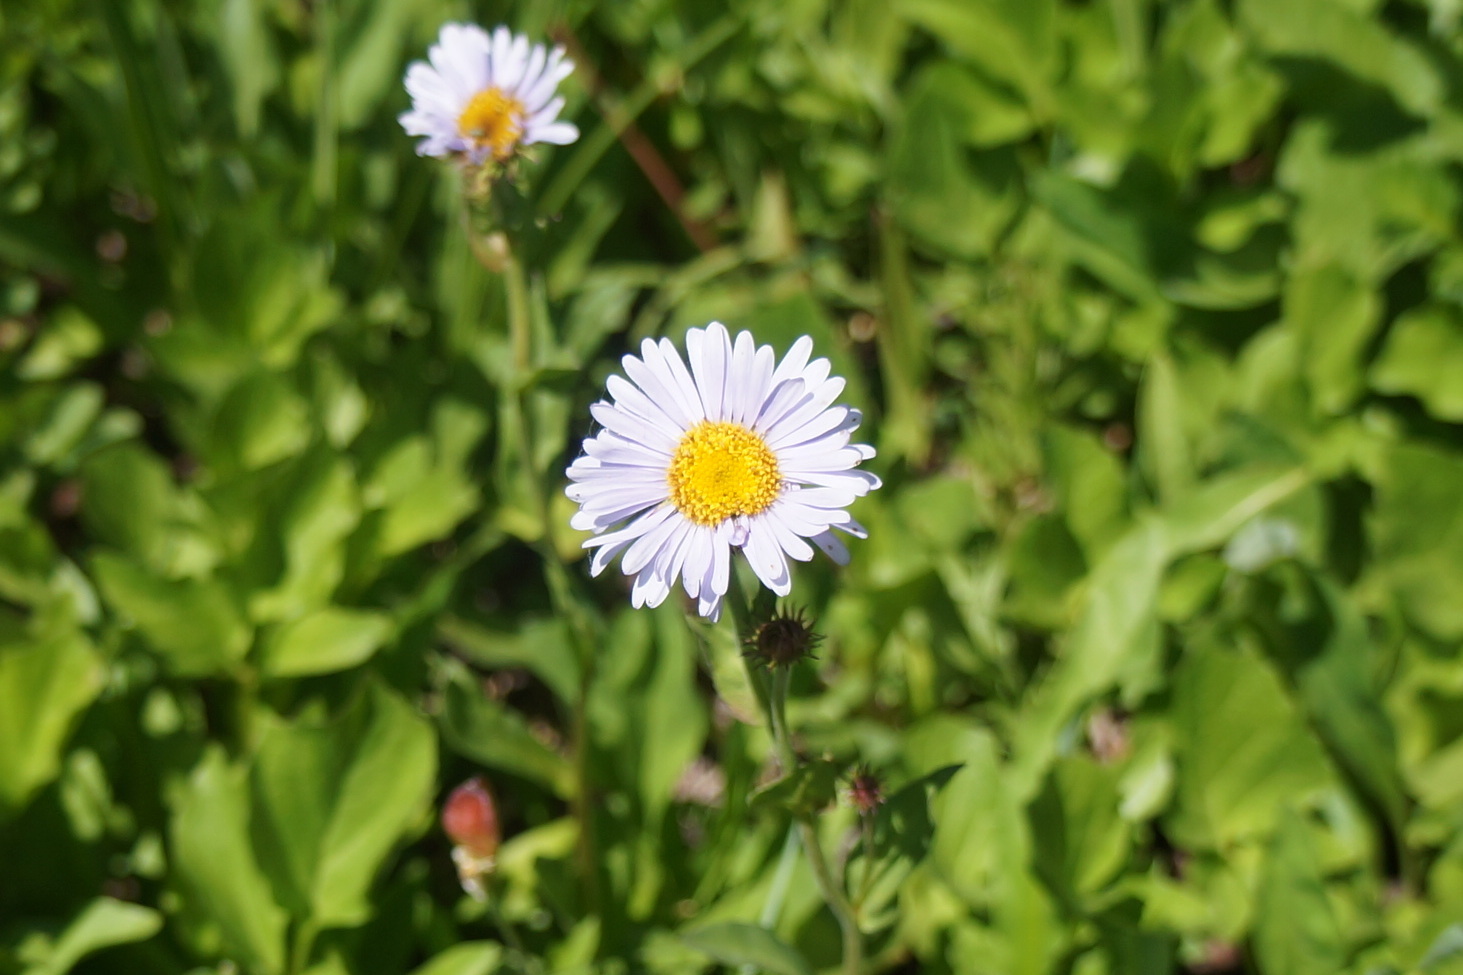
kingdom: Plantae
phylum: Tracheophyta
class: Magnoliopsida
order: Asterales
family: Asteraceae
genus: Erigeron
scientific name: Erigeron glacialis
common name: Subalpine fleabane
